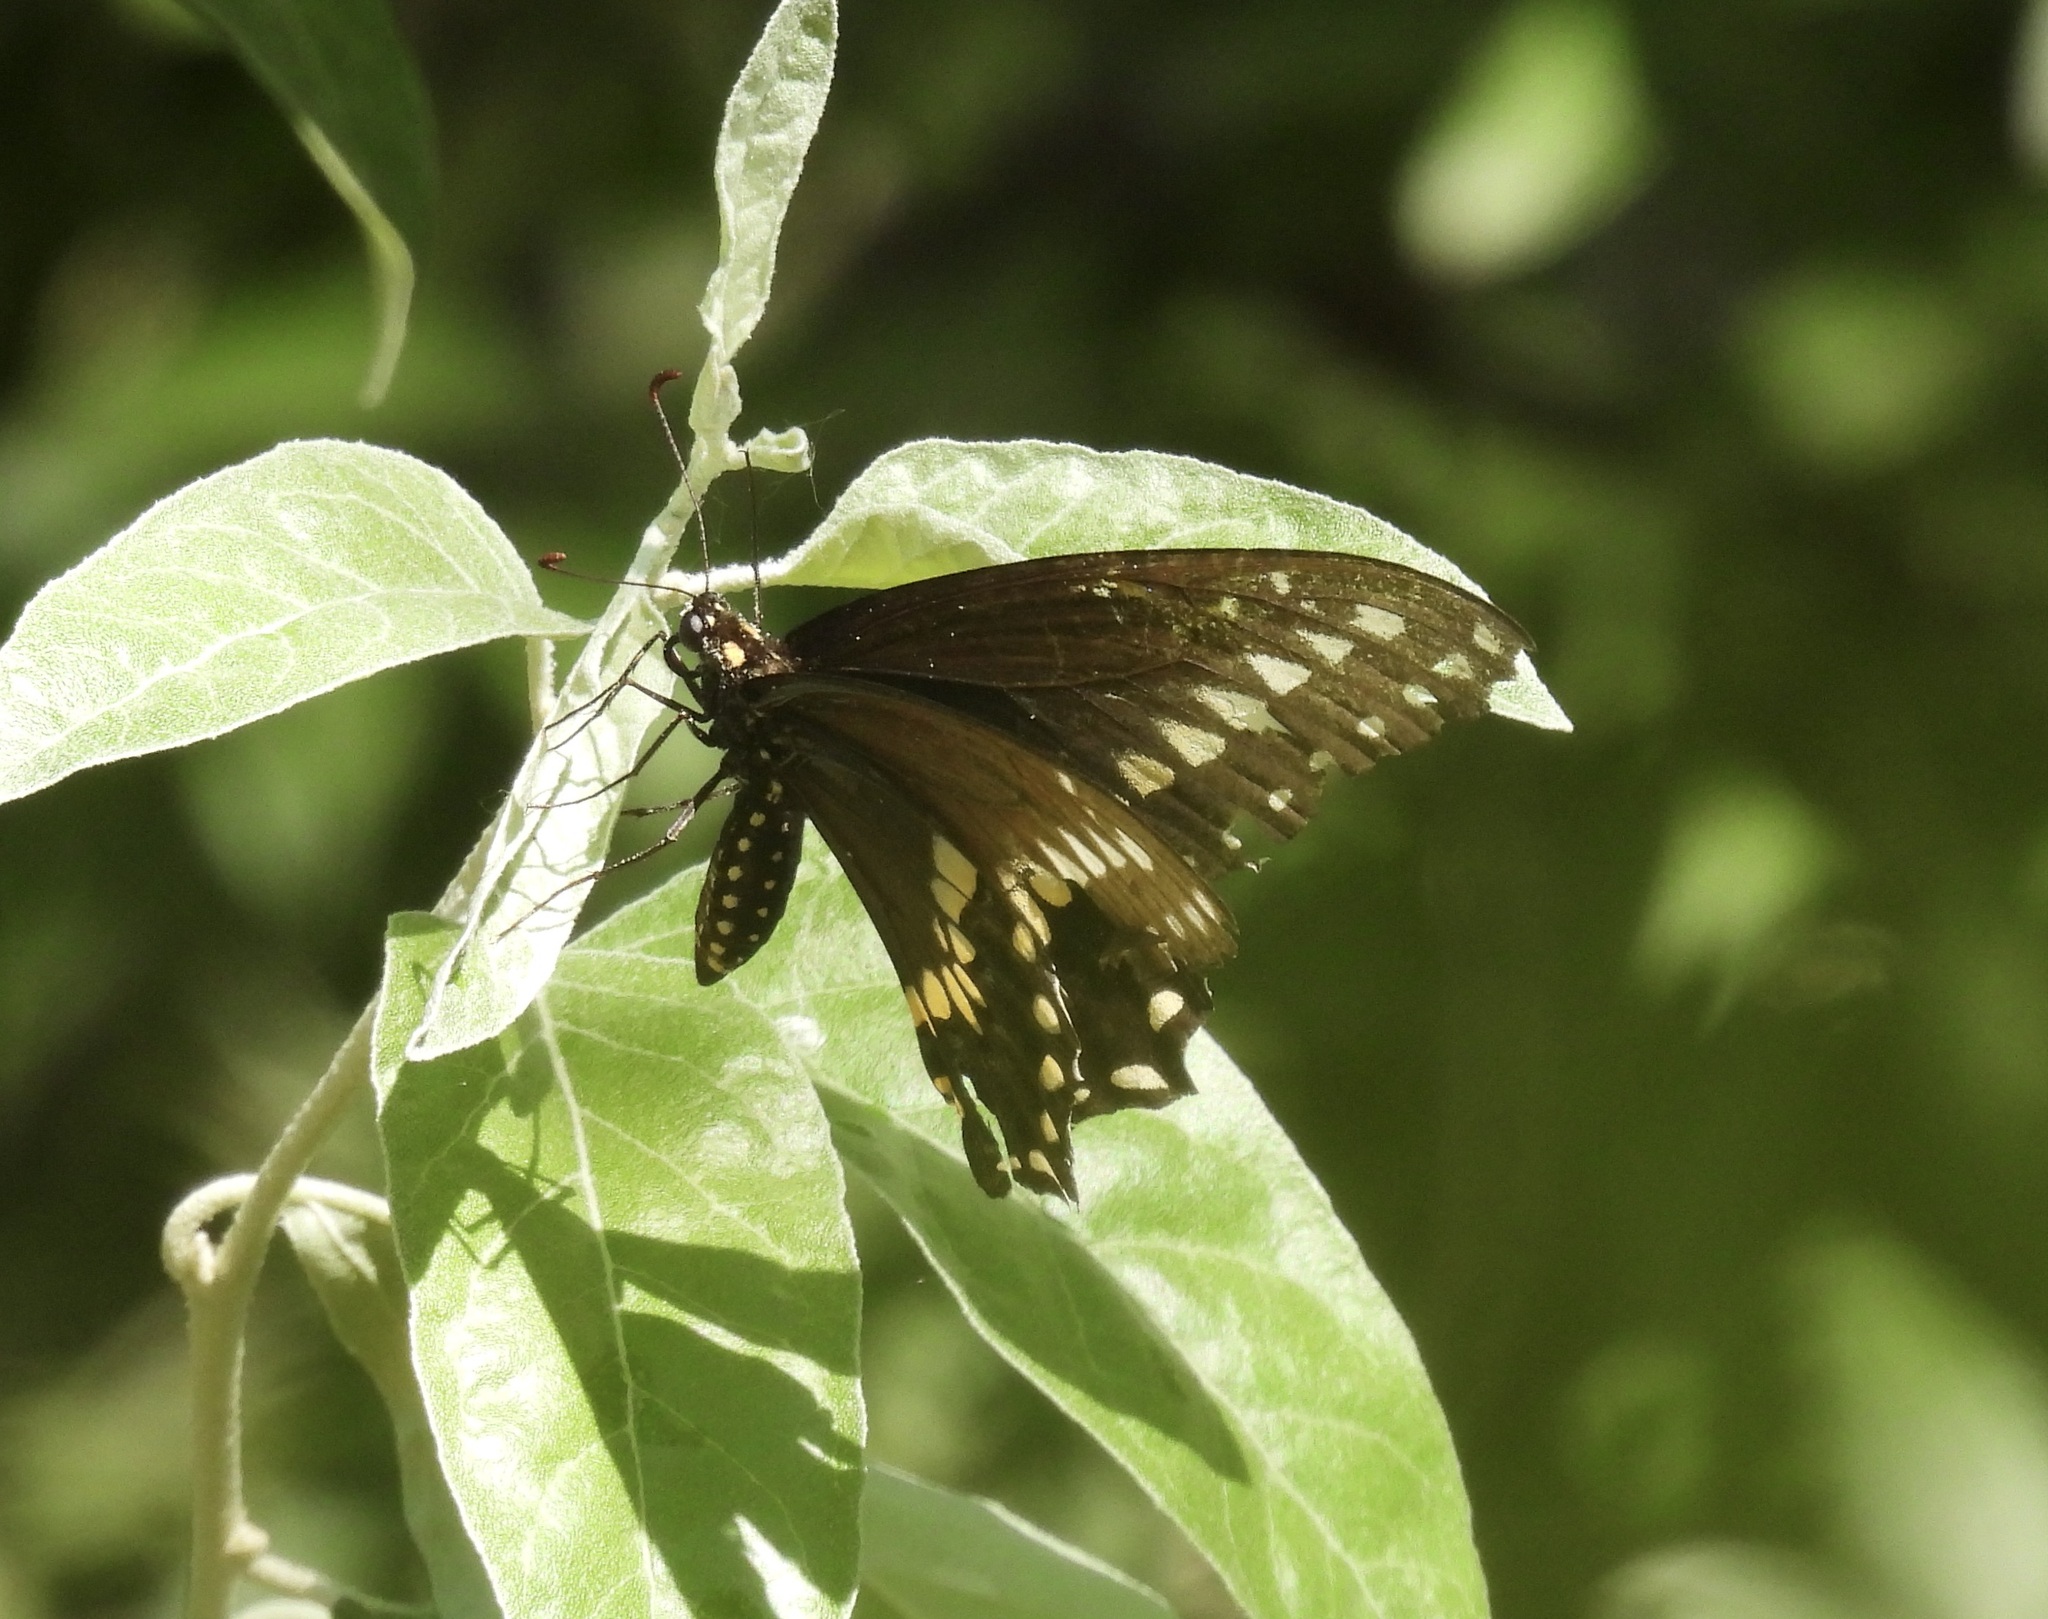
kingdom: Animalia
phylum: Arthropoda
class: Insecta
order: Lepidoptera
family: Papilionidae
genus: Papilio
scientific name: Papilio polyxenes
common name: Black swallowtail
